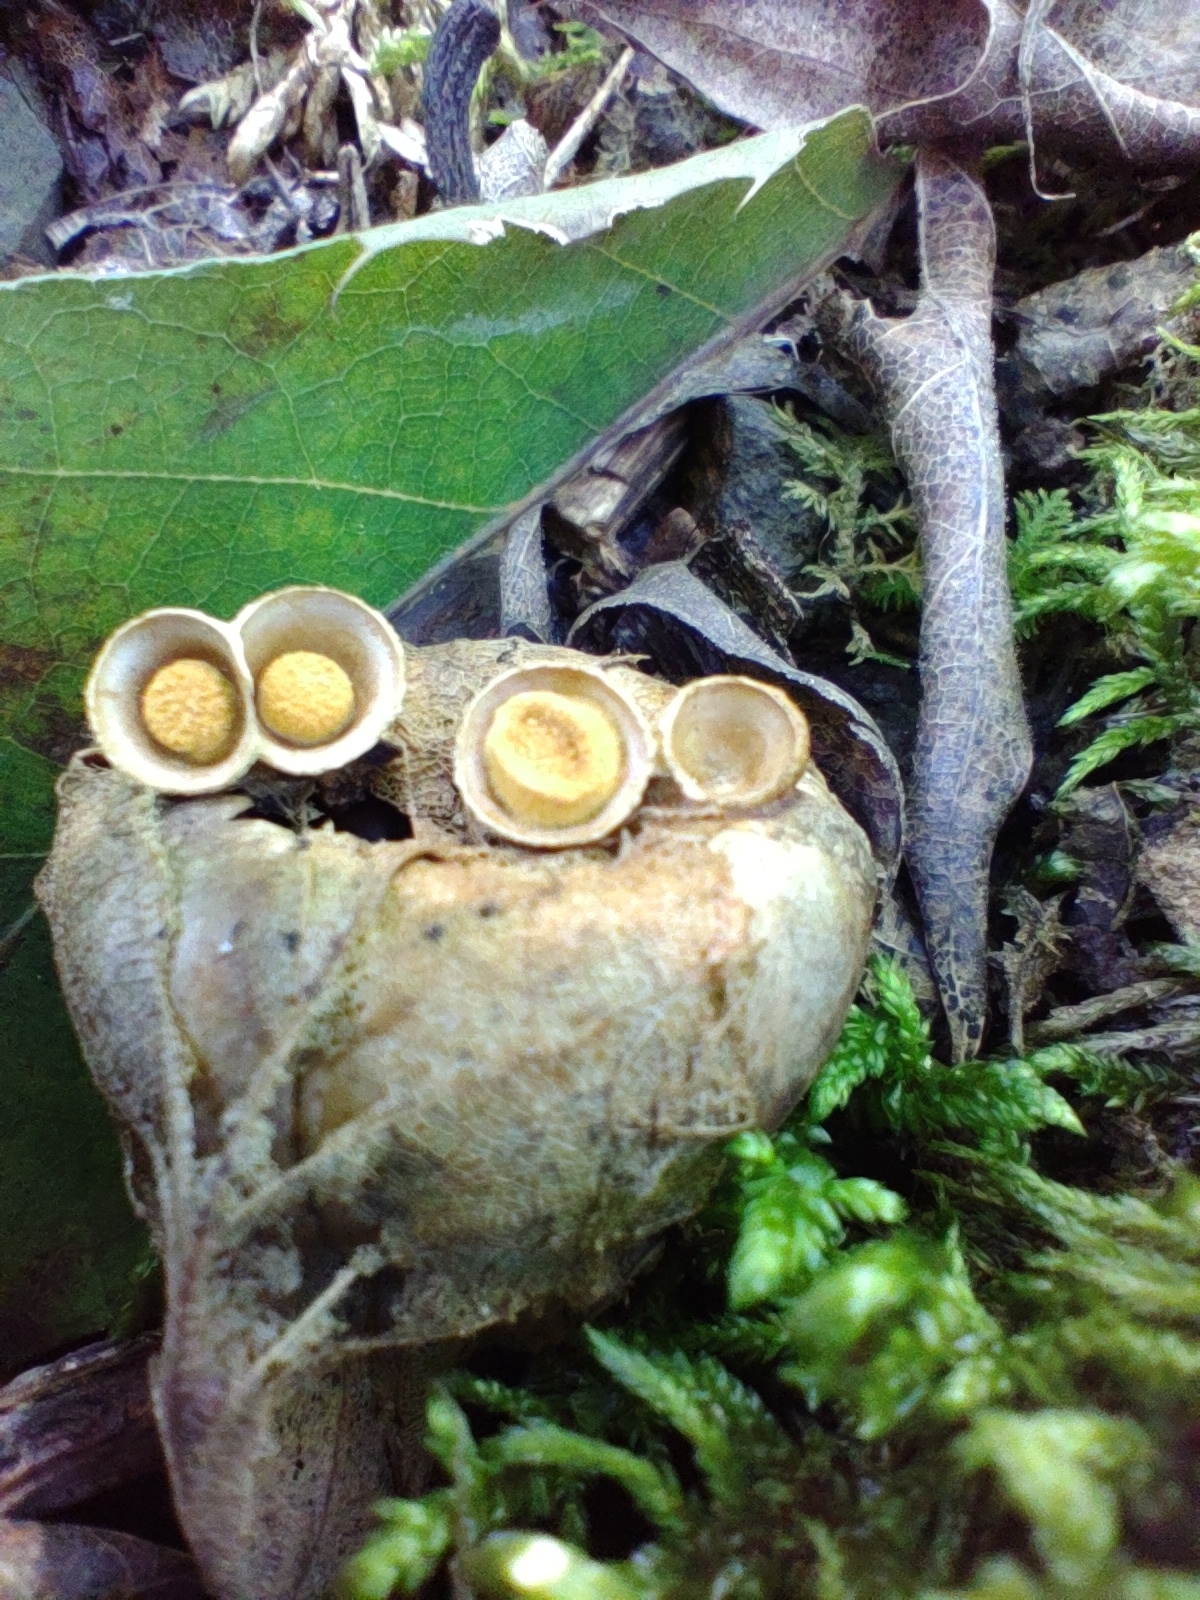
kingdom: Fungi
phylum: Basidiomycota
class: Agaricomycetes
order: Agaricales
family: Nidulariaceae
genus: Crucibulum
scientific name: Crucibulum laeve
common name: Common bird's nest
